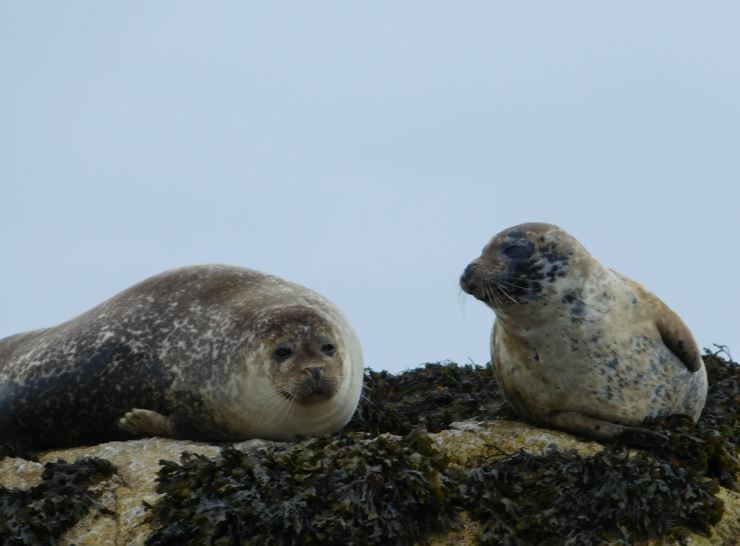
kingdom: Animalia
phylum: Chordata
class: Mammalia
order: Carnivora
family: Phocidae
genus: Phoca
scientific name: Phoca vitulina
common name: Harbor seal
